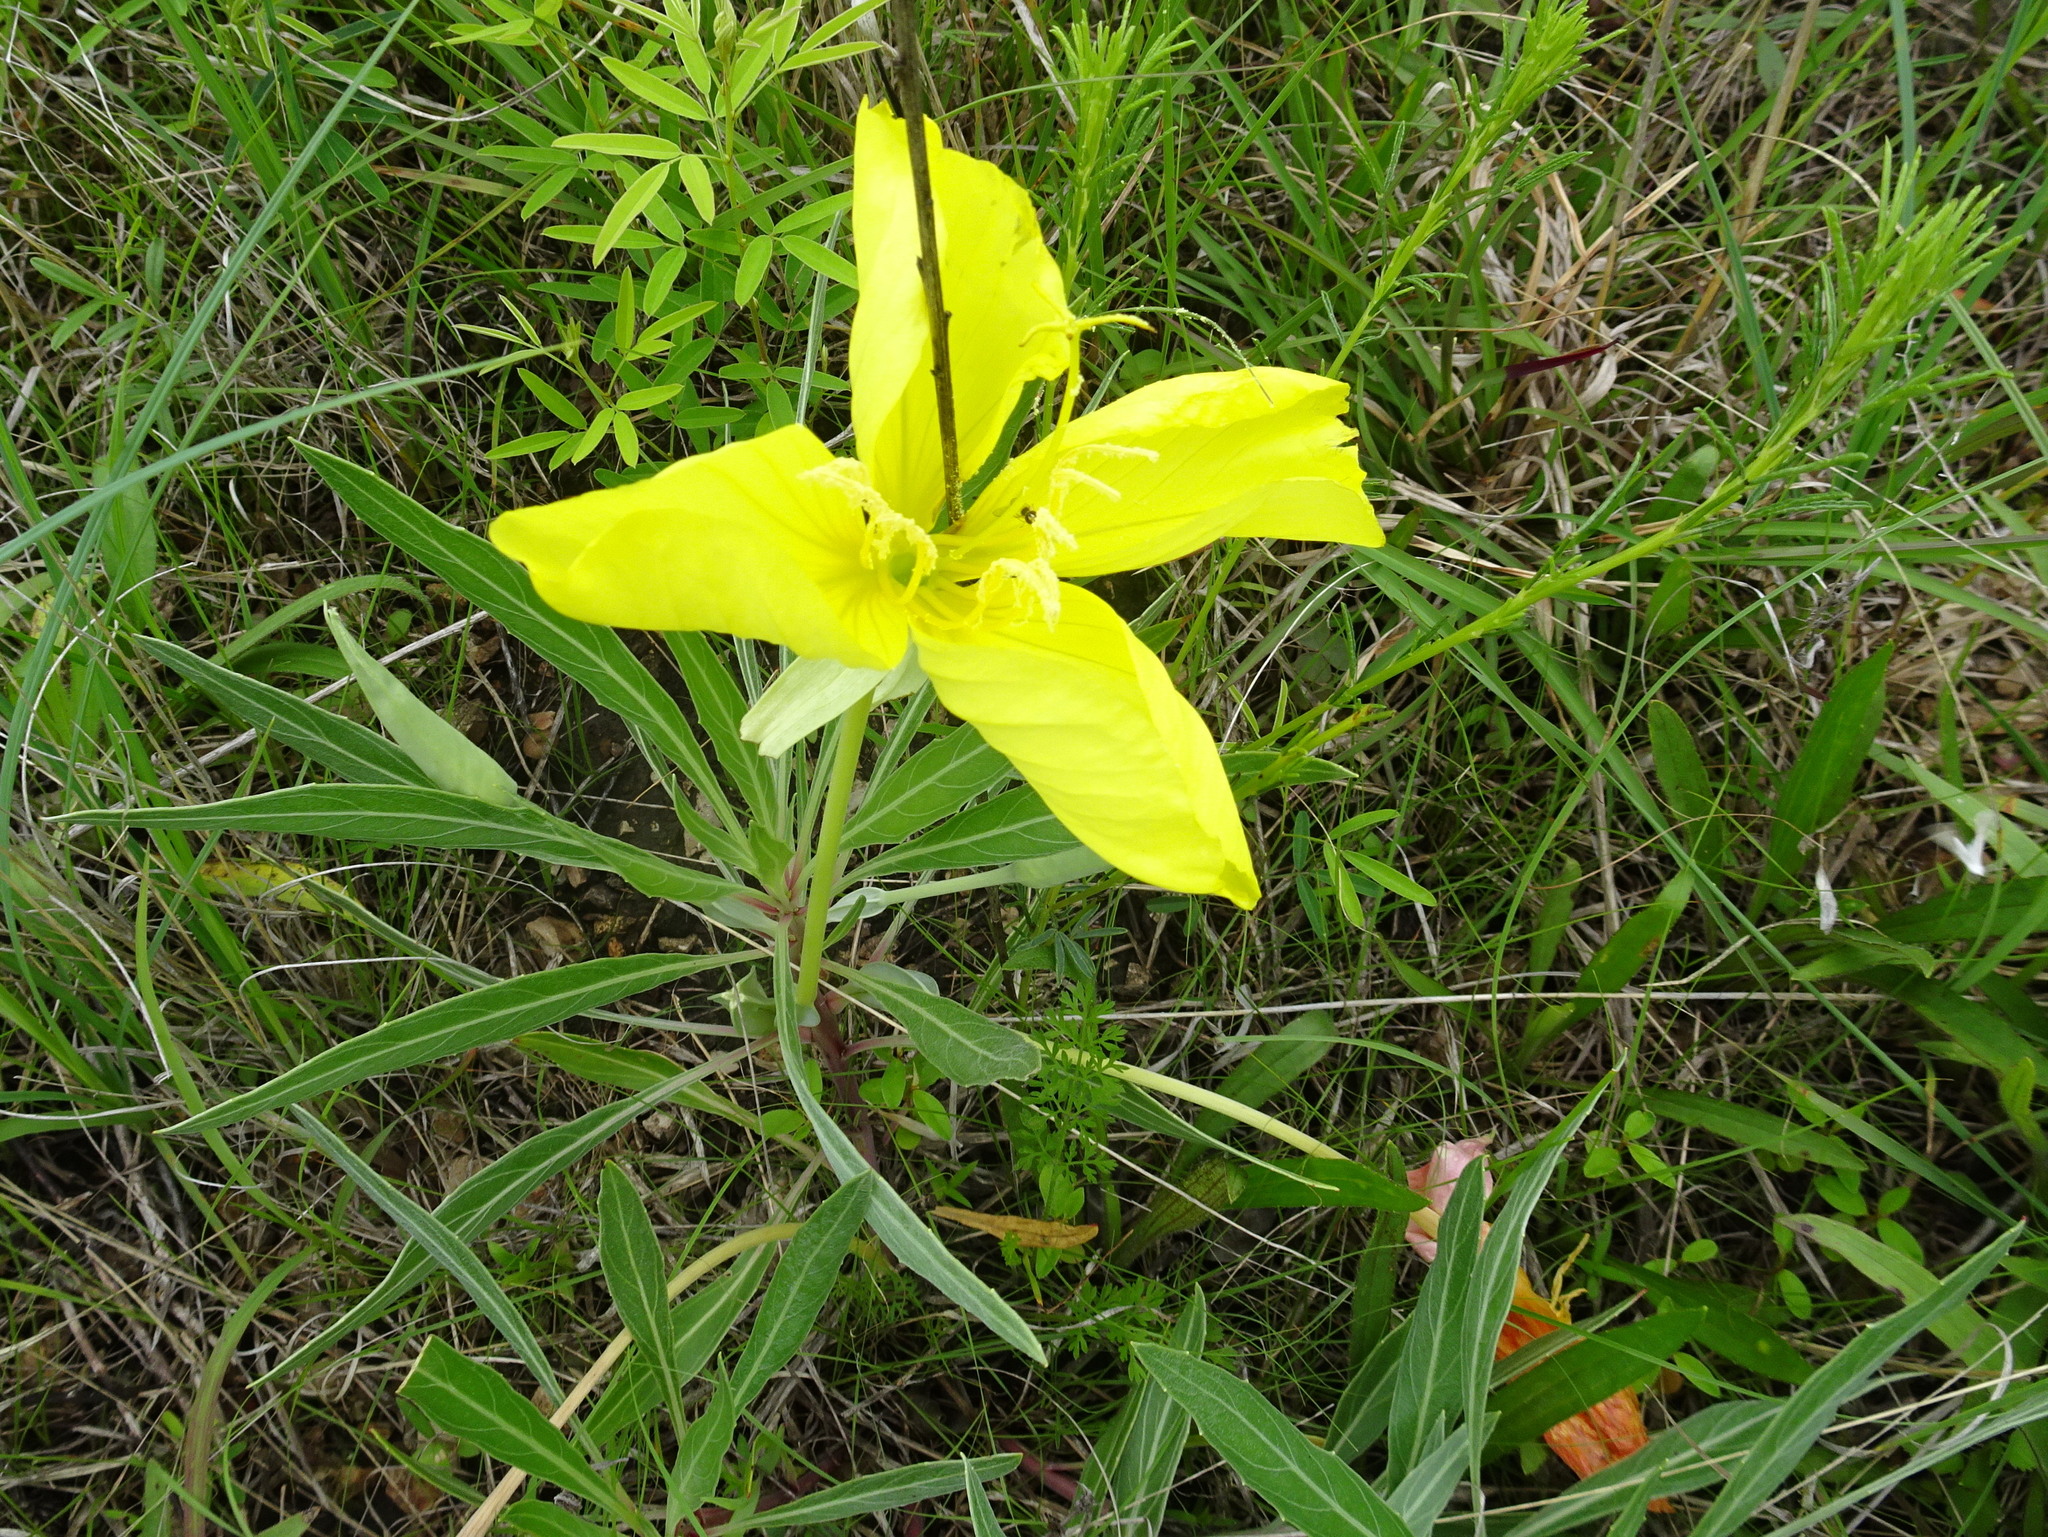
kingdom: Plantae
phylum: Tracheophyta
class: Magnoliopsida
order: Myrtales
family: Onagraceae
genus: Oenothera
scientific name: Oenothera macrocarpa
